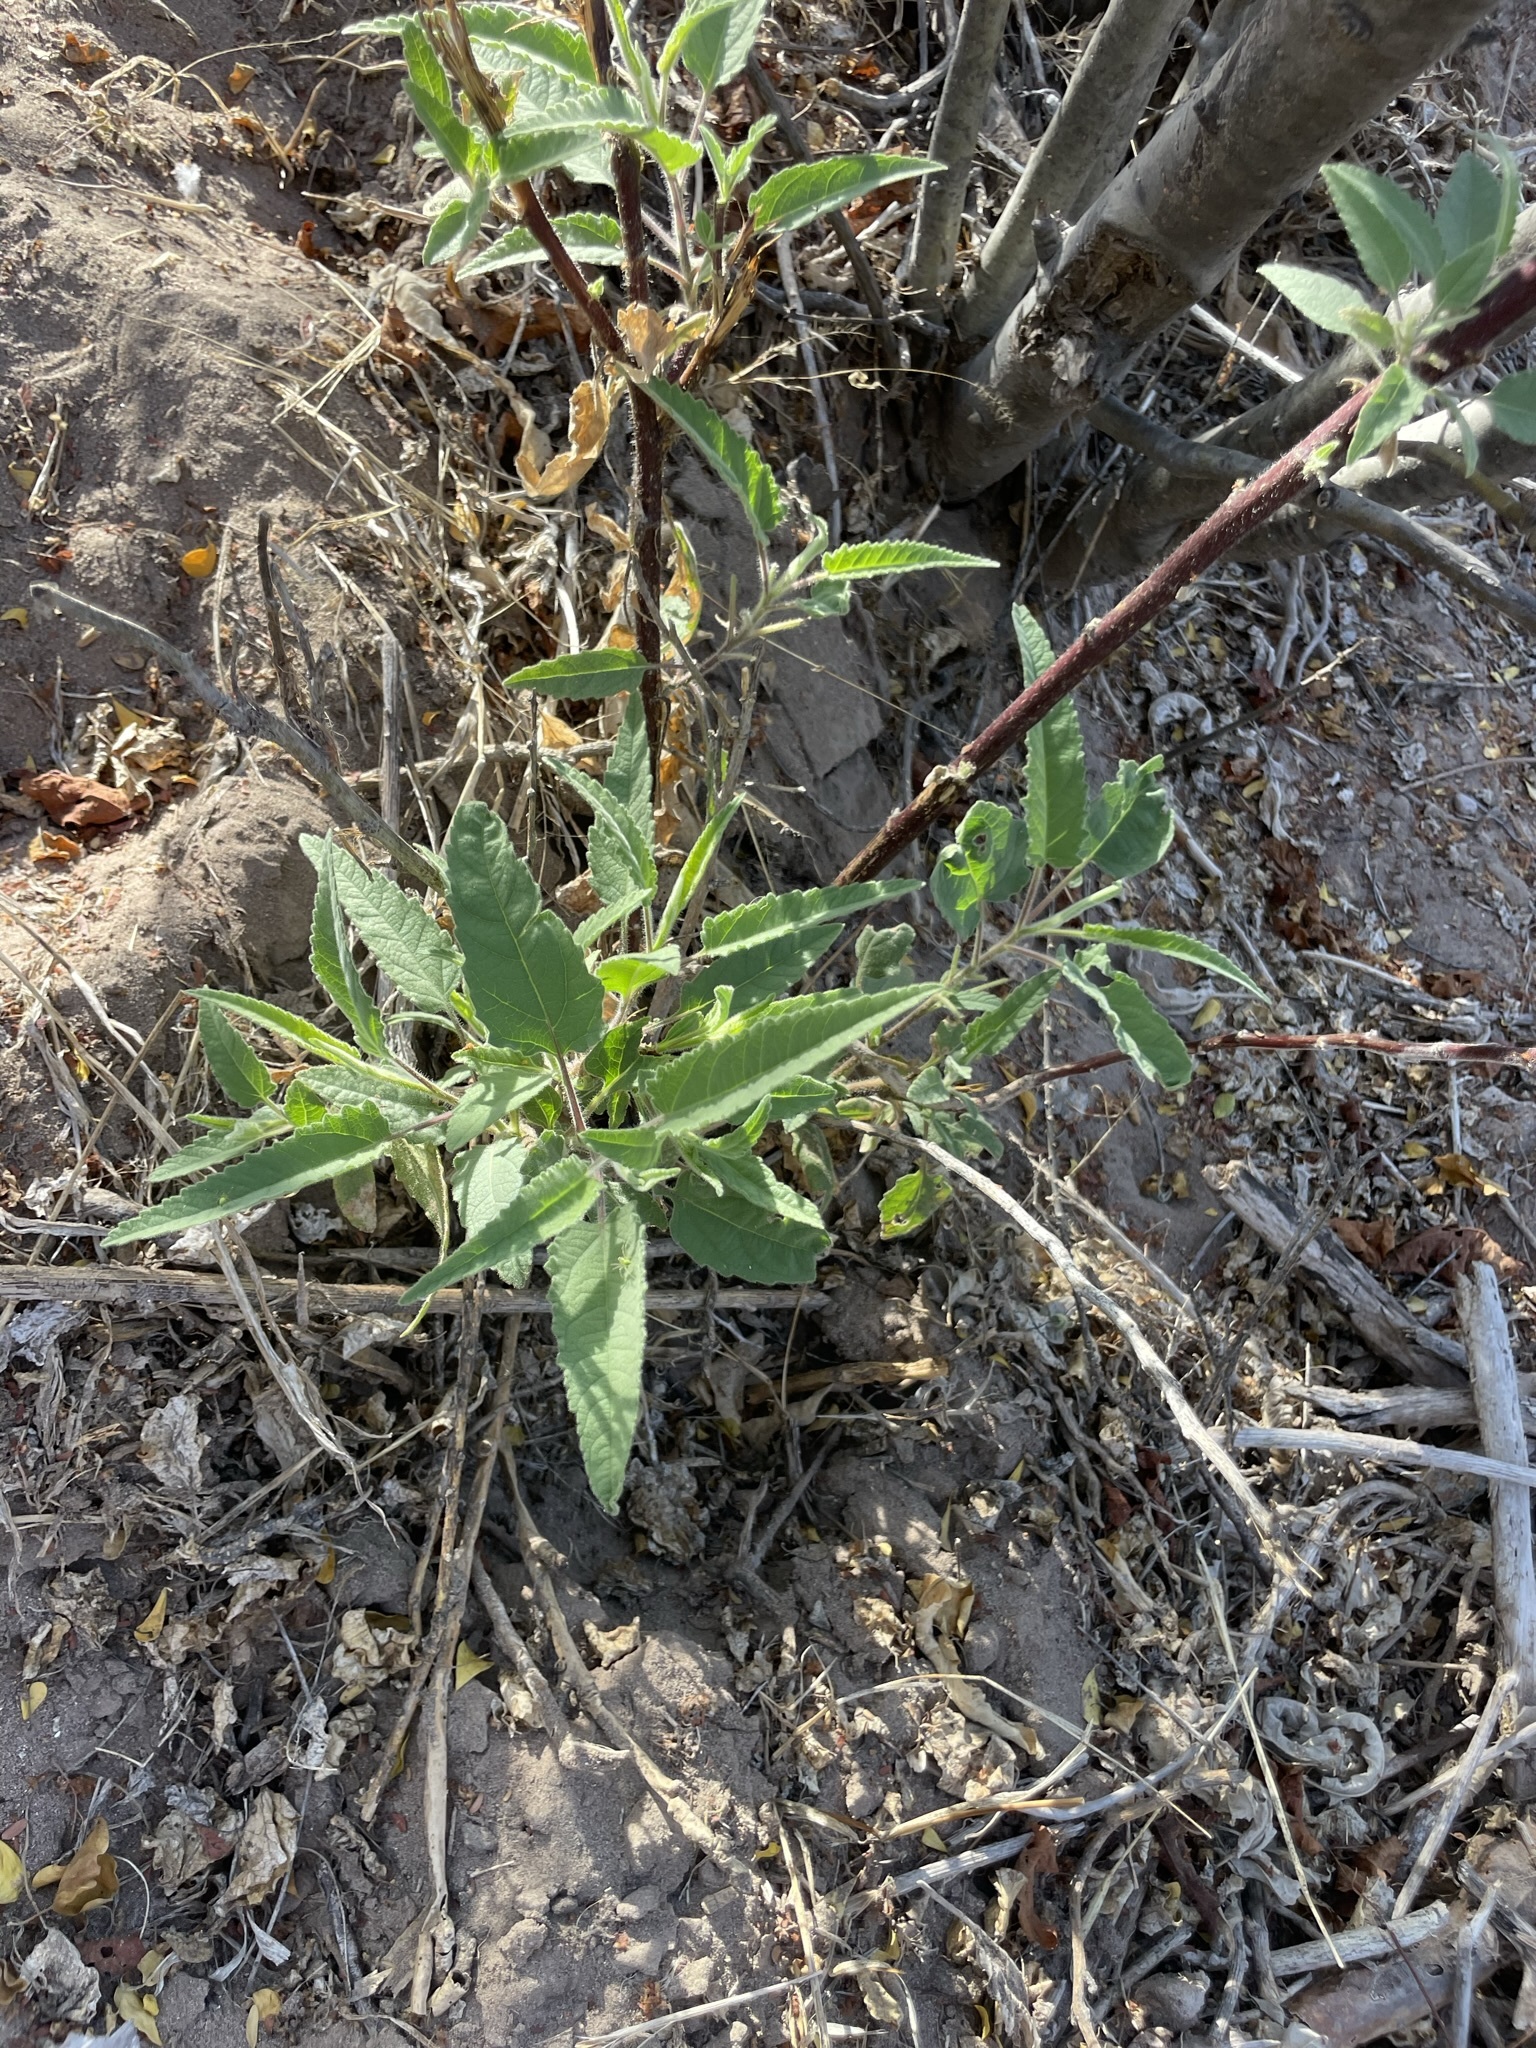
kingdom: Plantae
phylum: Tracheophyta
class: Magnoliopsida
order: Asterales
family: Asteraceae
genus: Ambrosia
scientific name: Ambrosia ambrosioides
